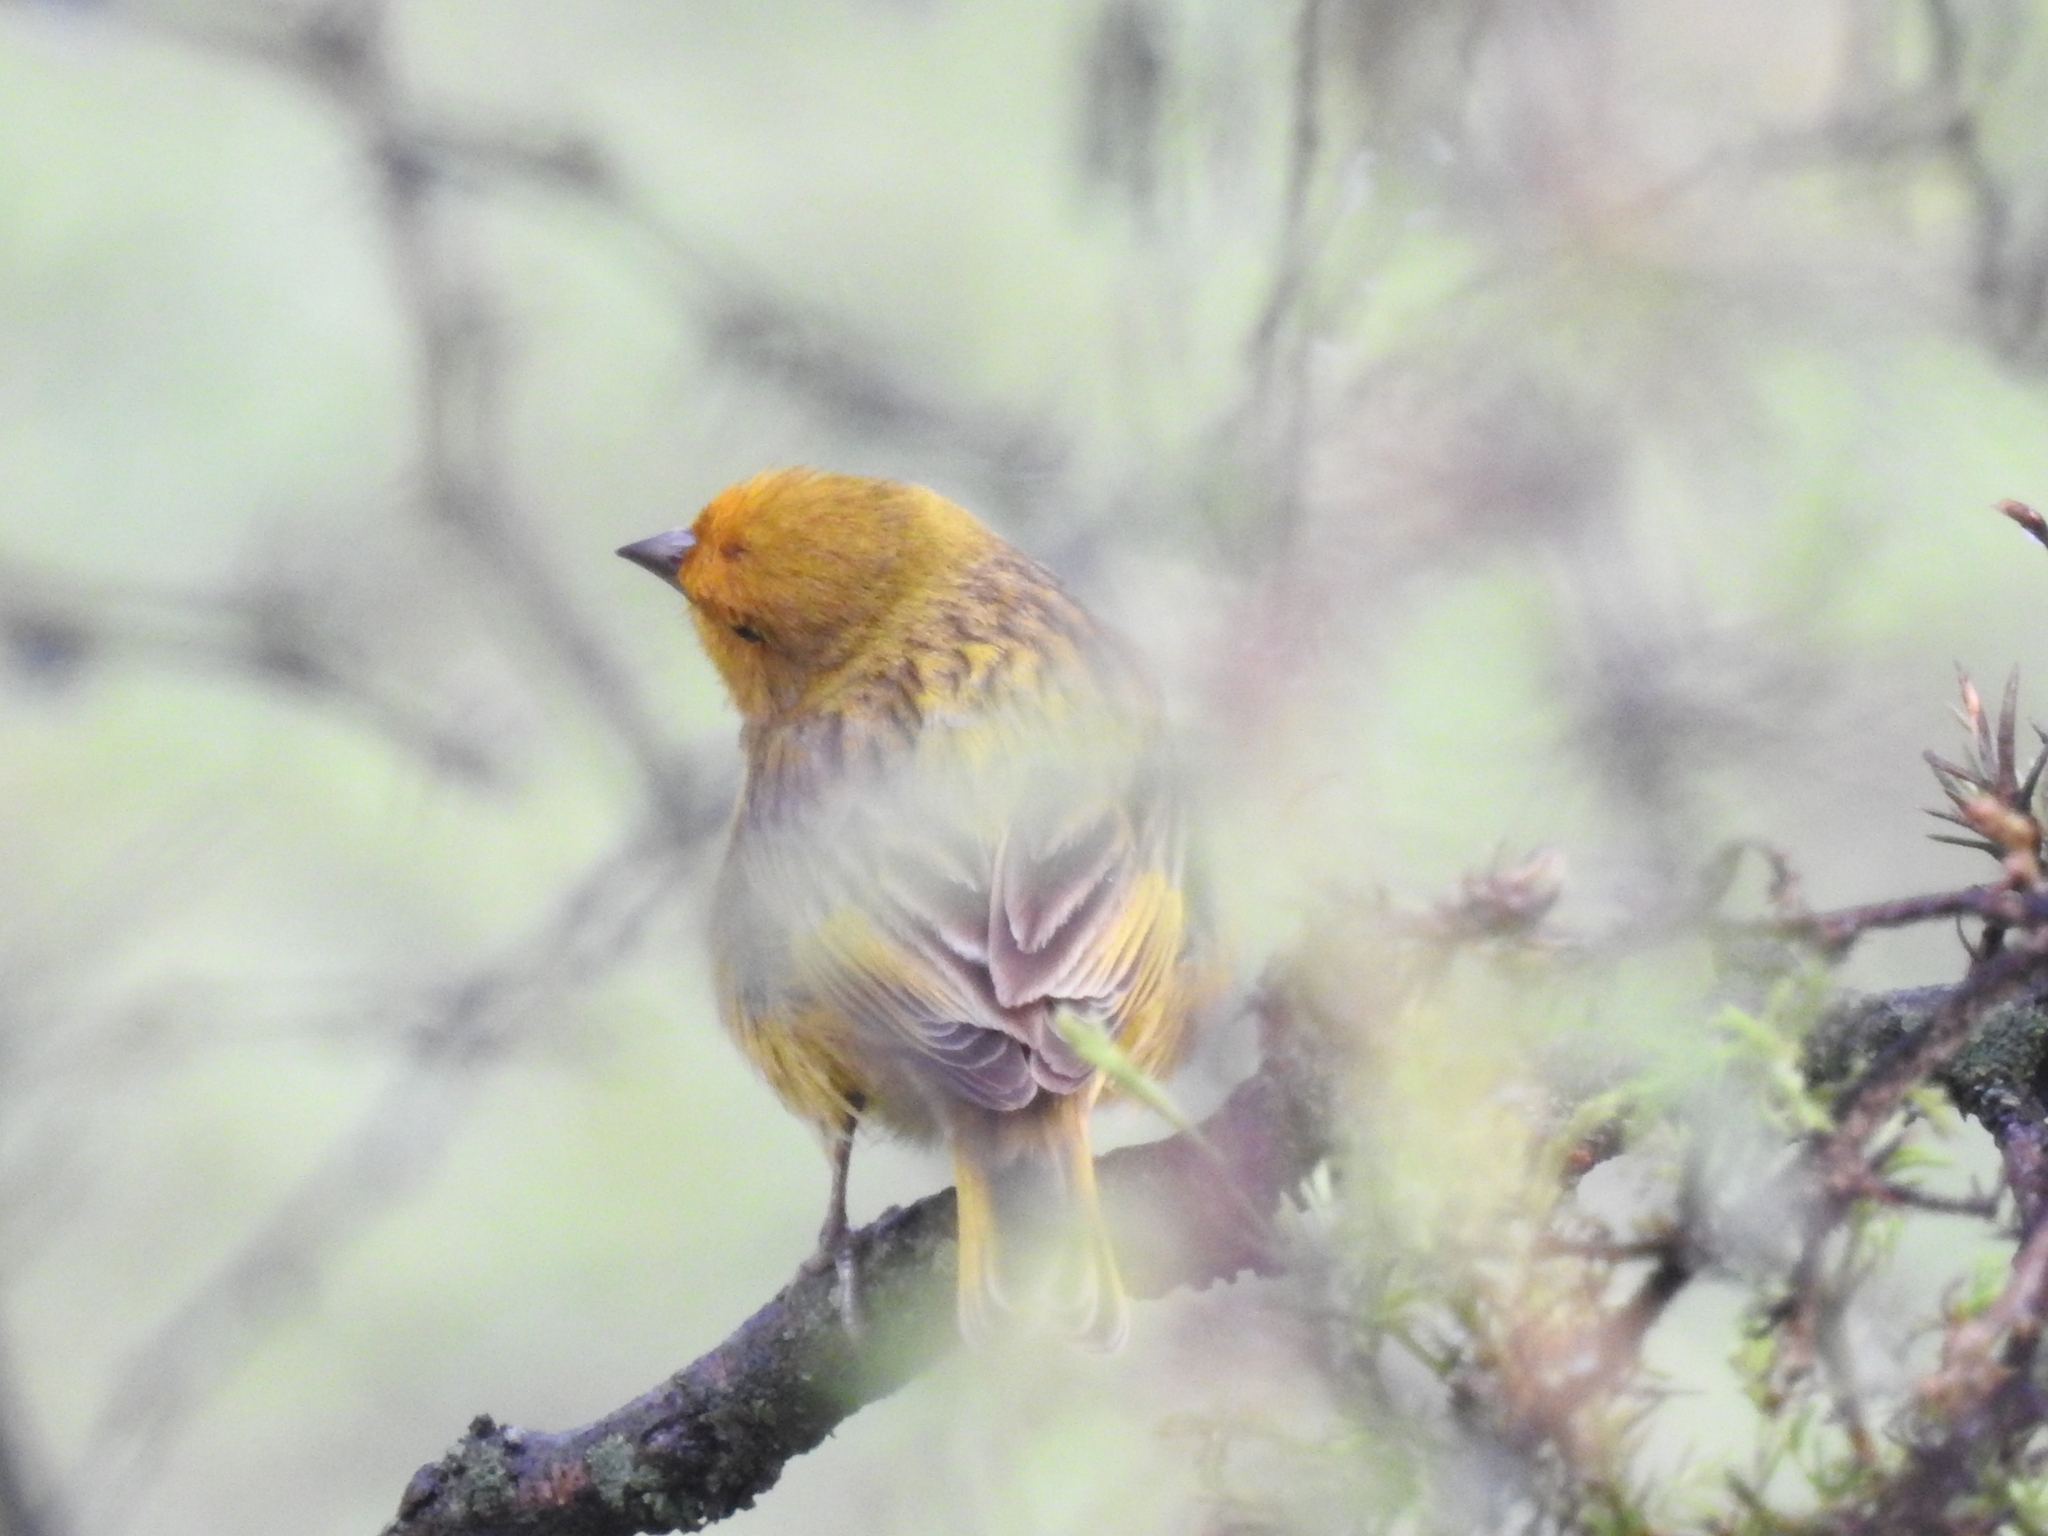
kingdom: Animalia
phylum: Chordata
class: Aves
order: Passeriformes
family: Thraupidae
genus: Sicalis
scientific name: Sicalis flaveola
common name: Saffron finch
